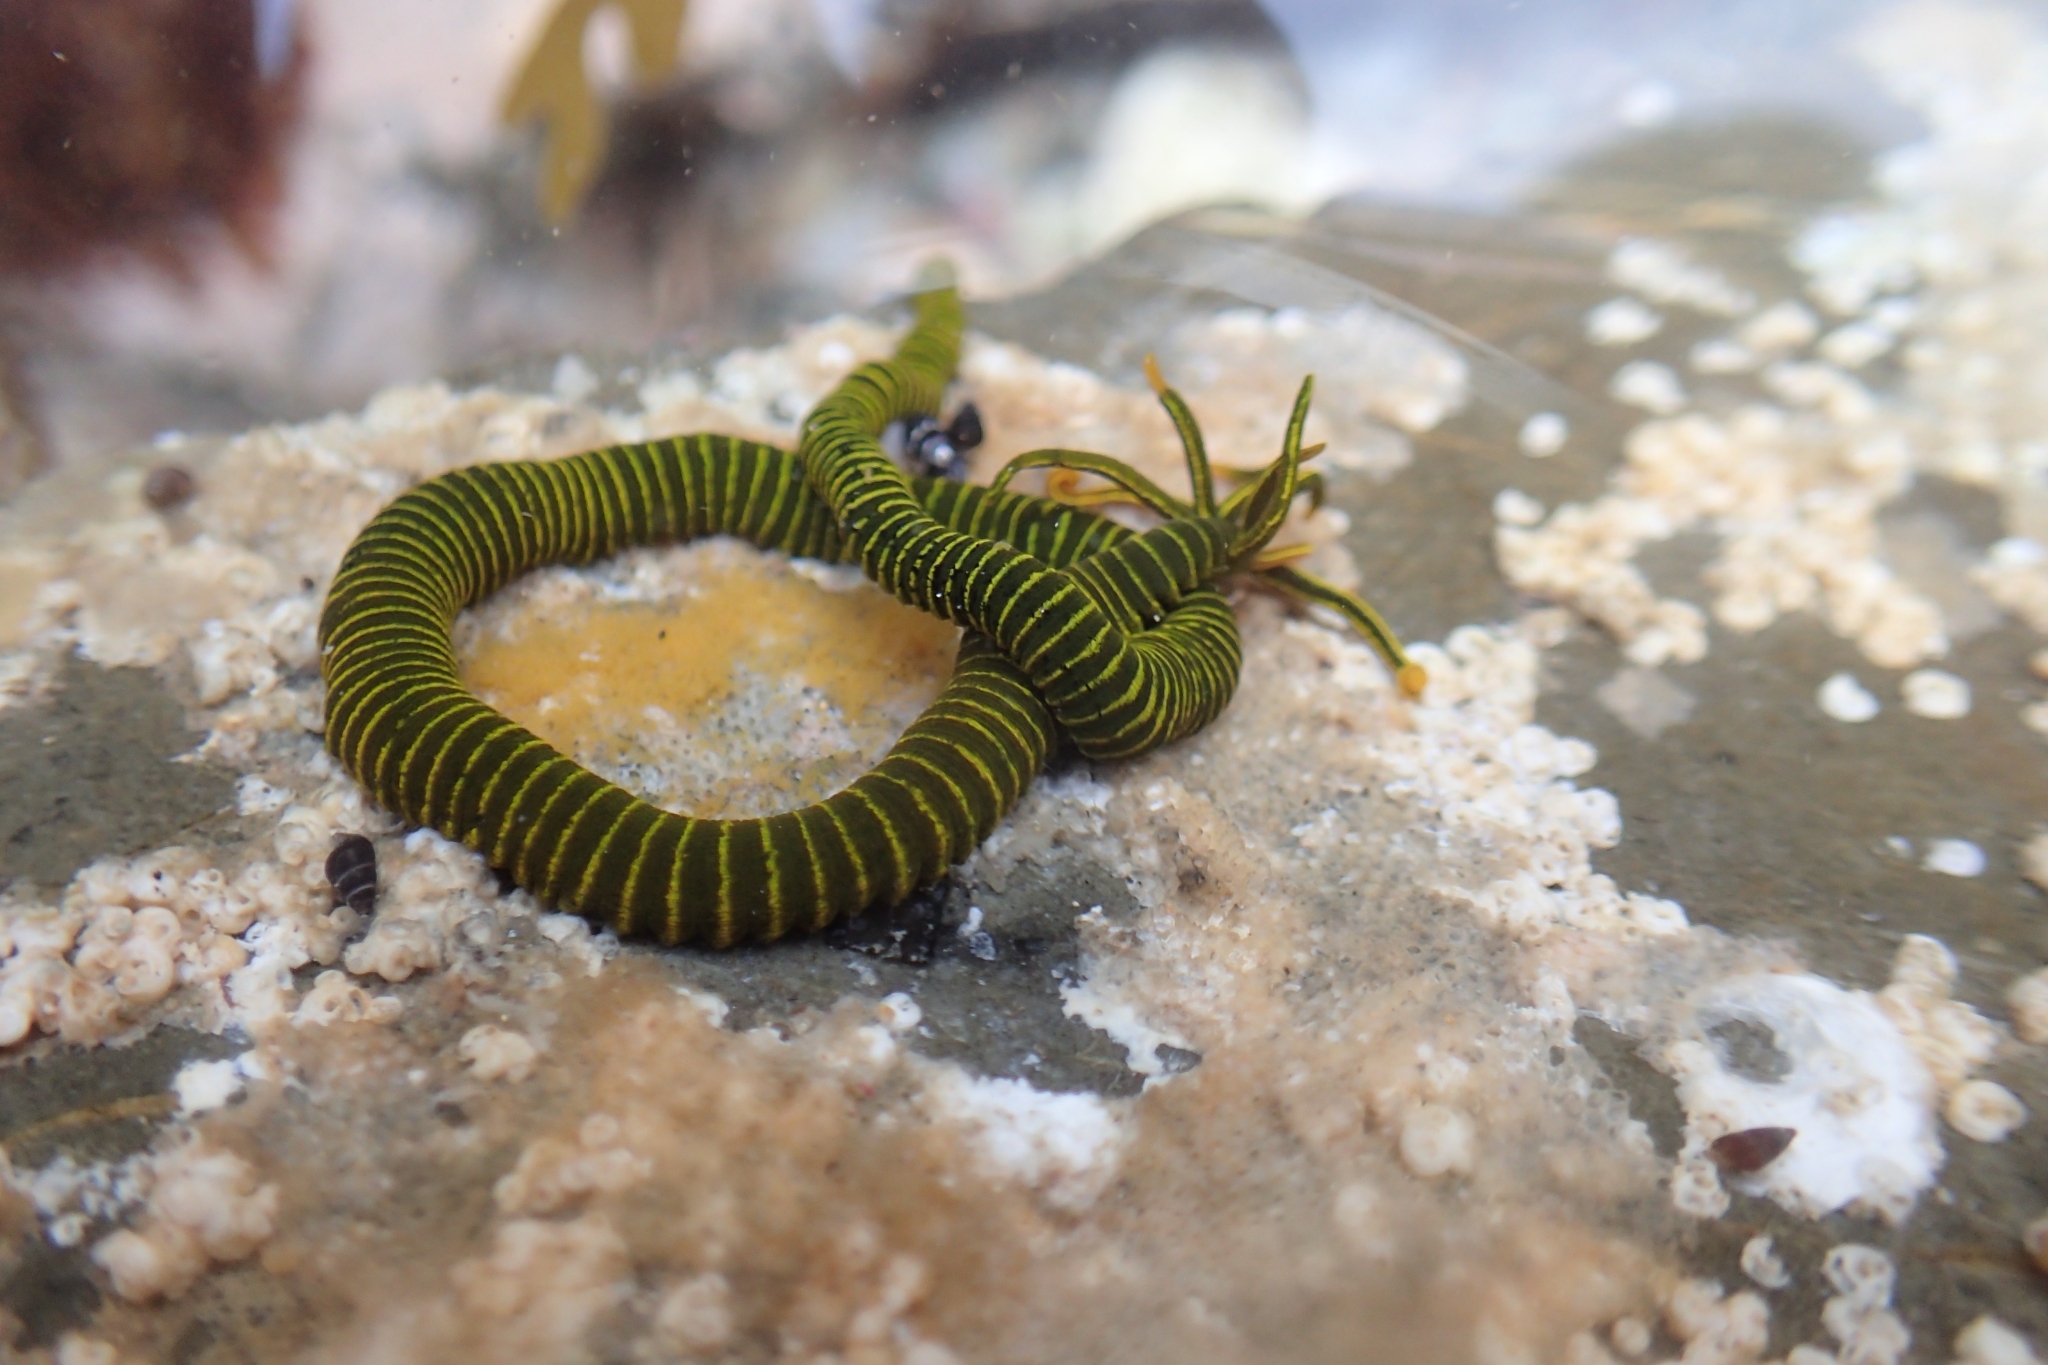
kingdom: Animalia
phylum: Annelida
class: Polychaeta
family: Acrocirridae
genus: Acrocirrus
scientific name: Acrocirrus
